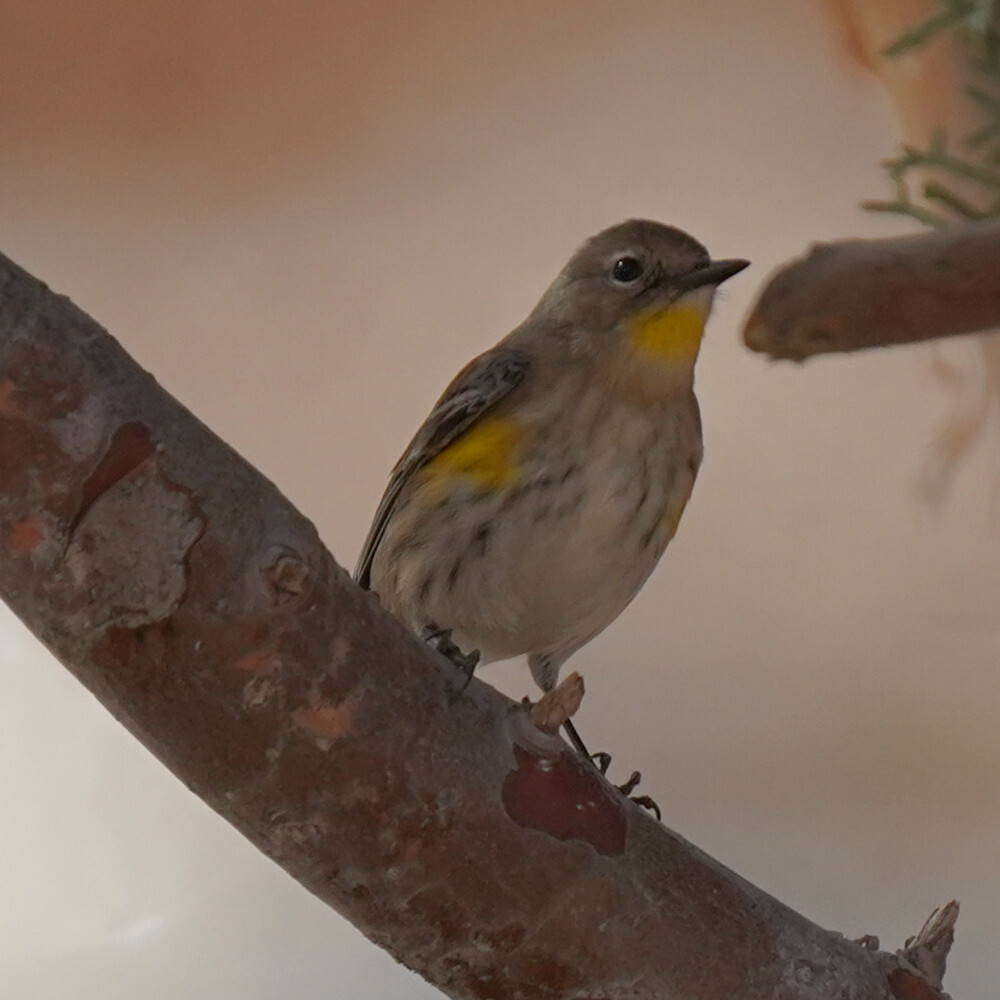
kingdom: Animalia
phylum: Chordata
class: Aves
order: Passeriformes
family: Parulidae
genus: Setophaga
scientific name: Setophaga auduboni
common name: Audubon's warbler
